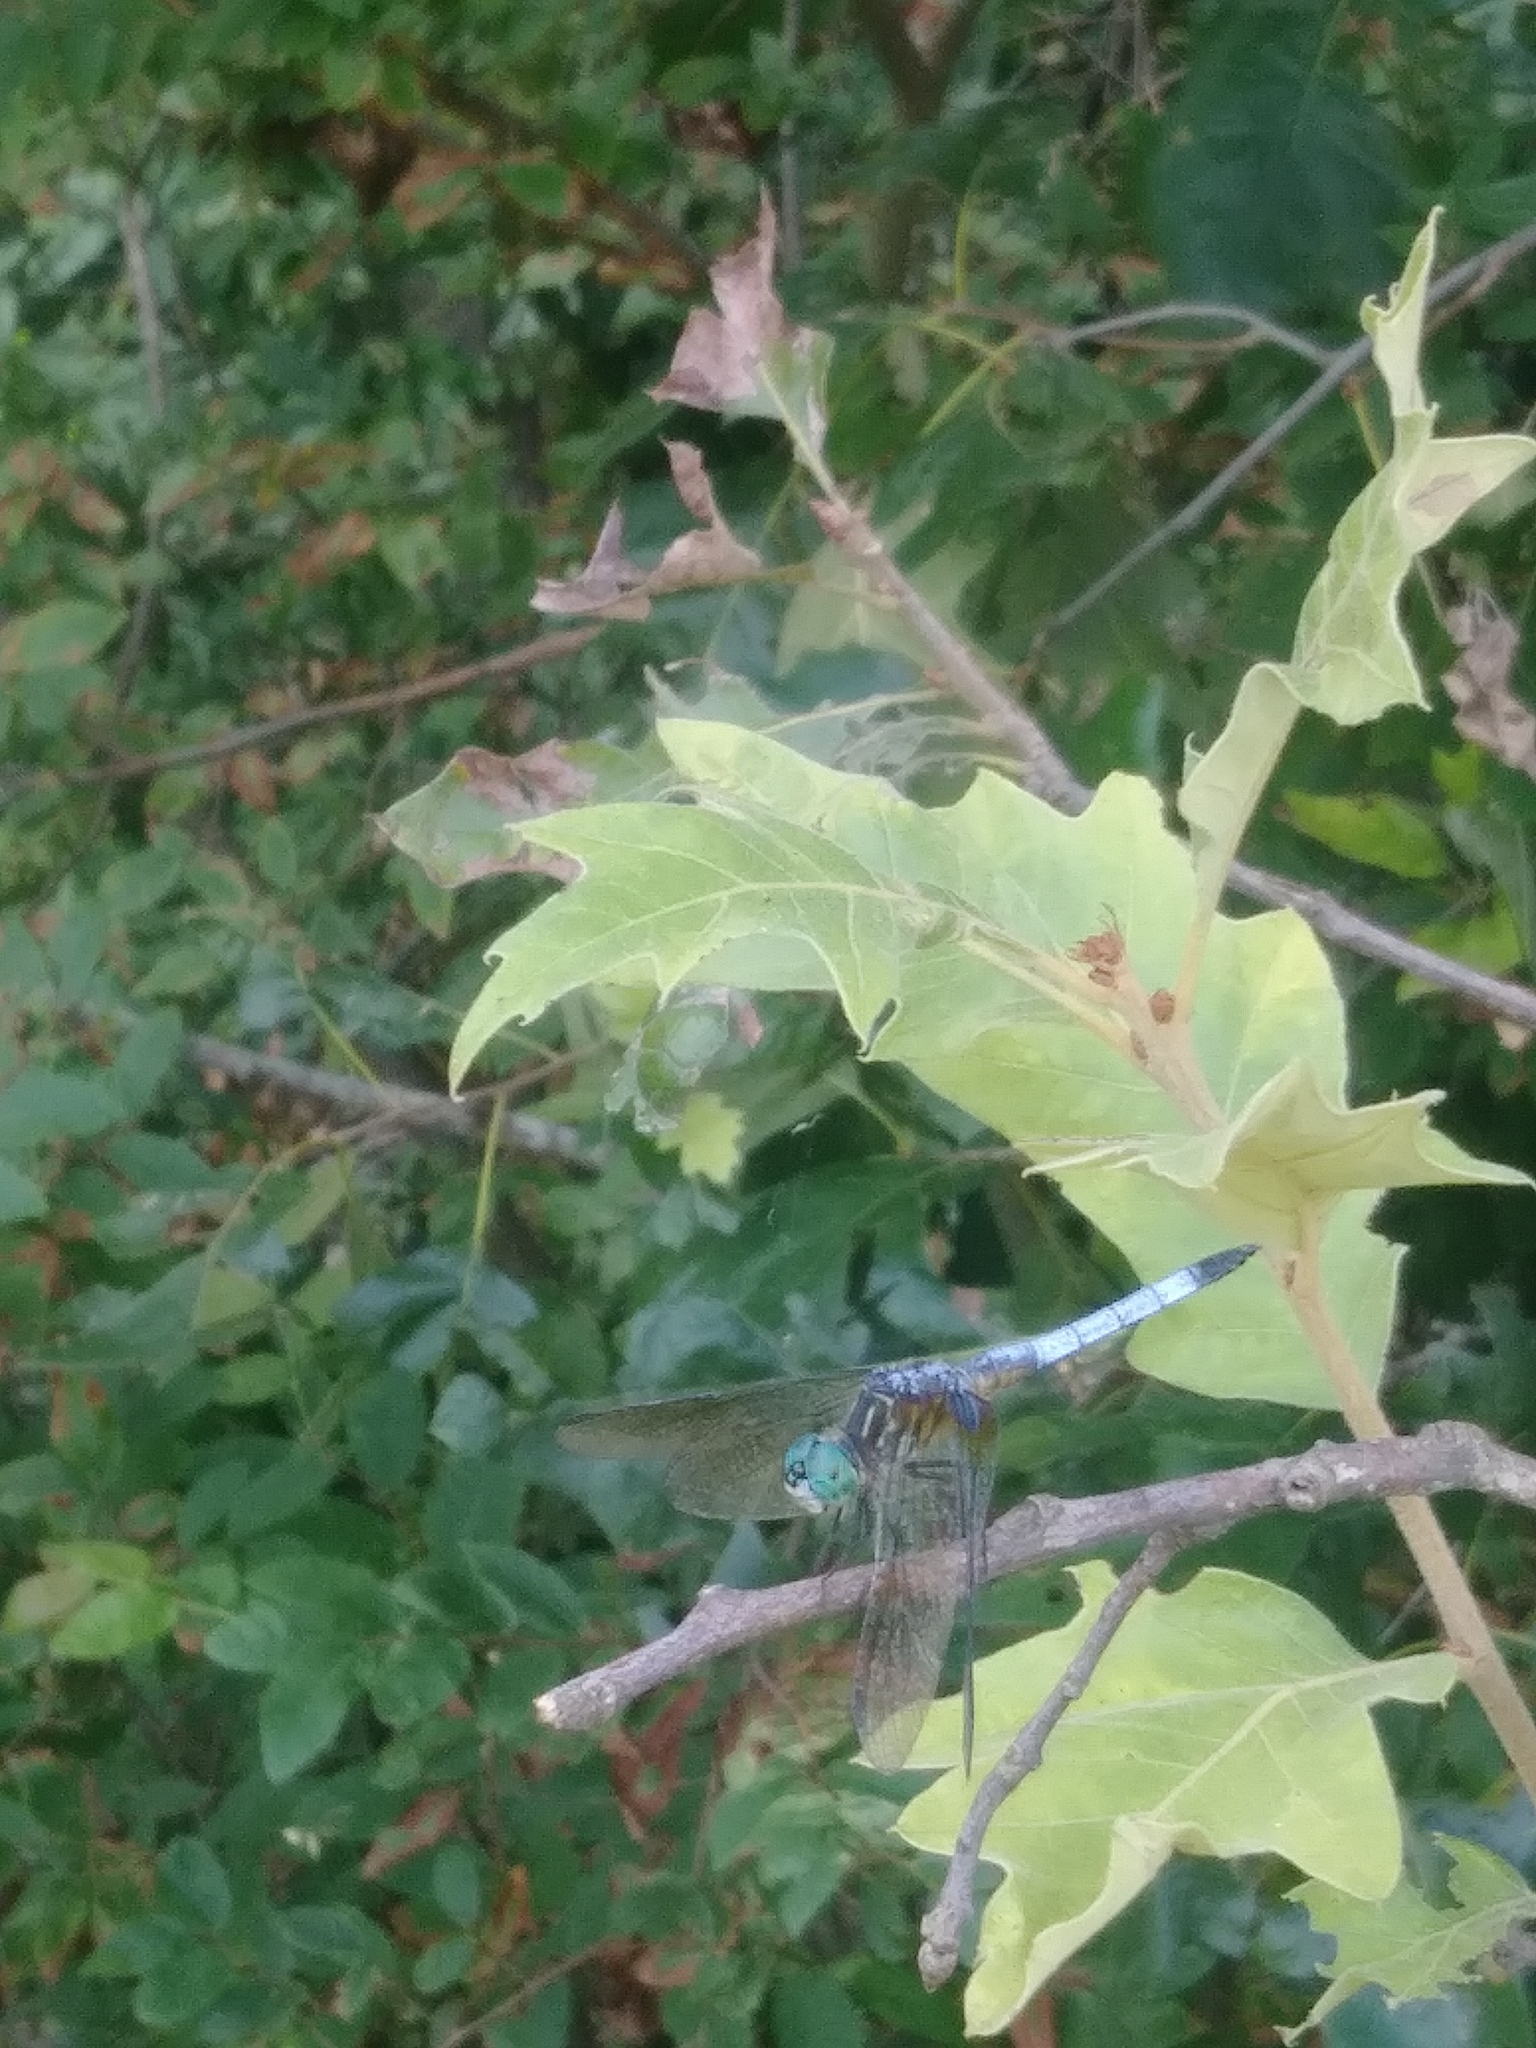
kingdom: Animalia
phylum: Arthropoda
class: Insecta
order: Odonata
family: Libellulidae
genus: Pachydiplax
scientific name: Pachydiplax longipennis
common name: Blue dasher
